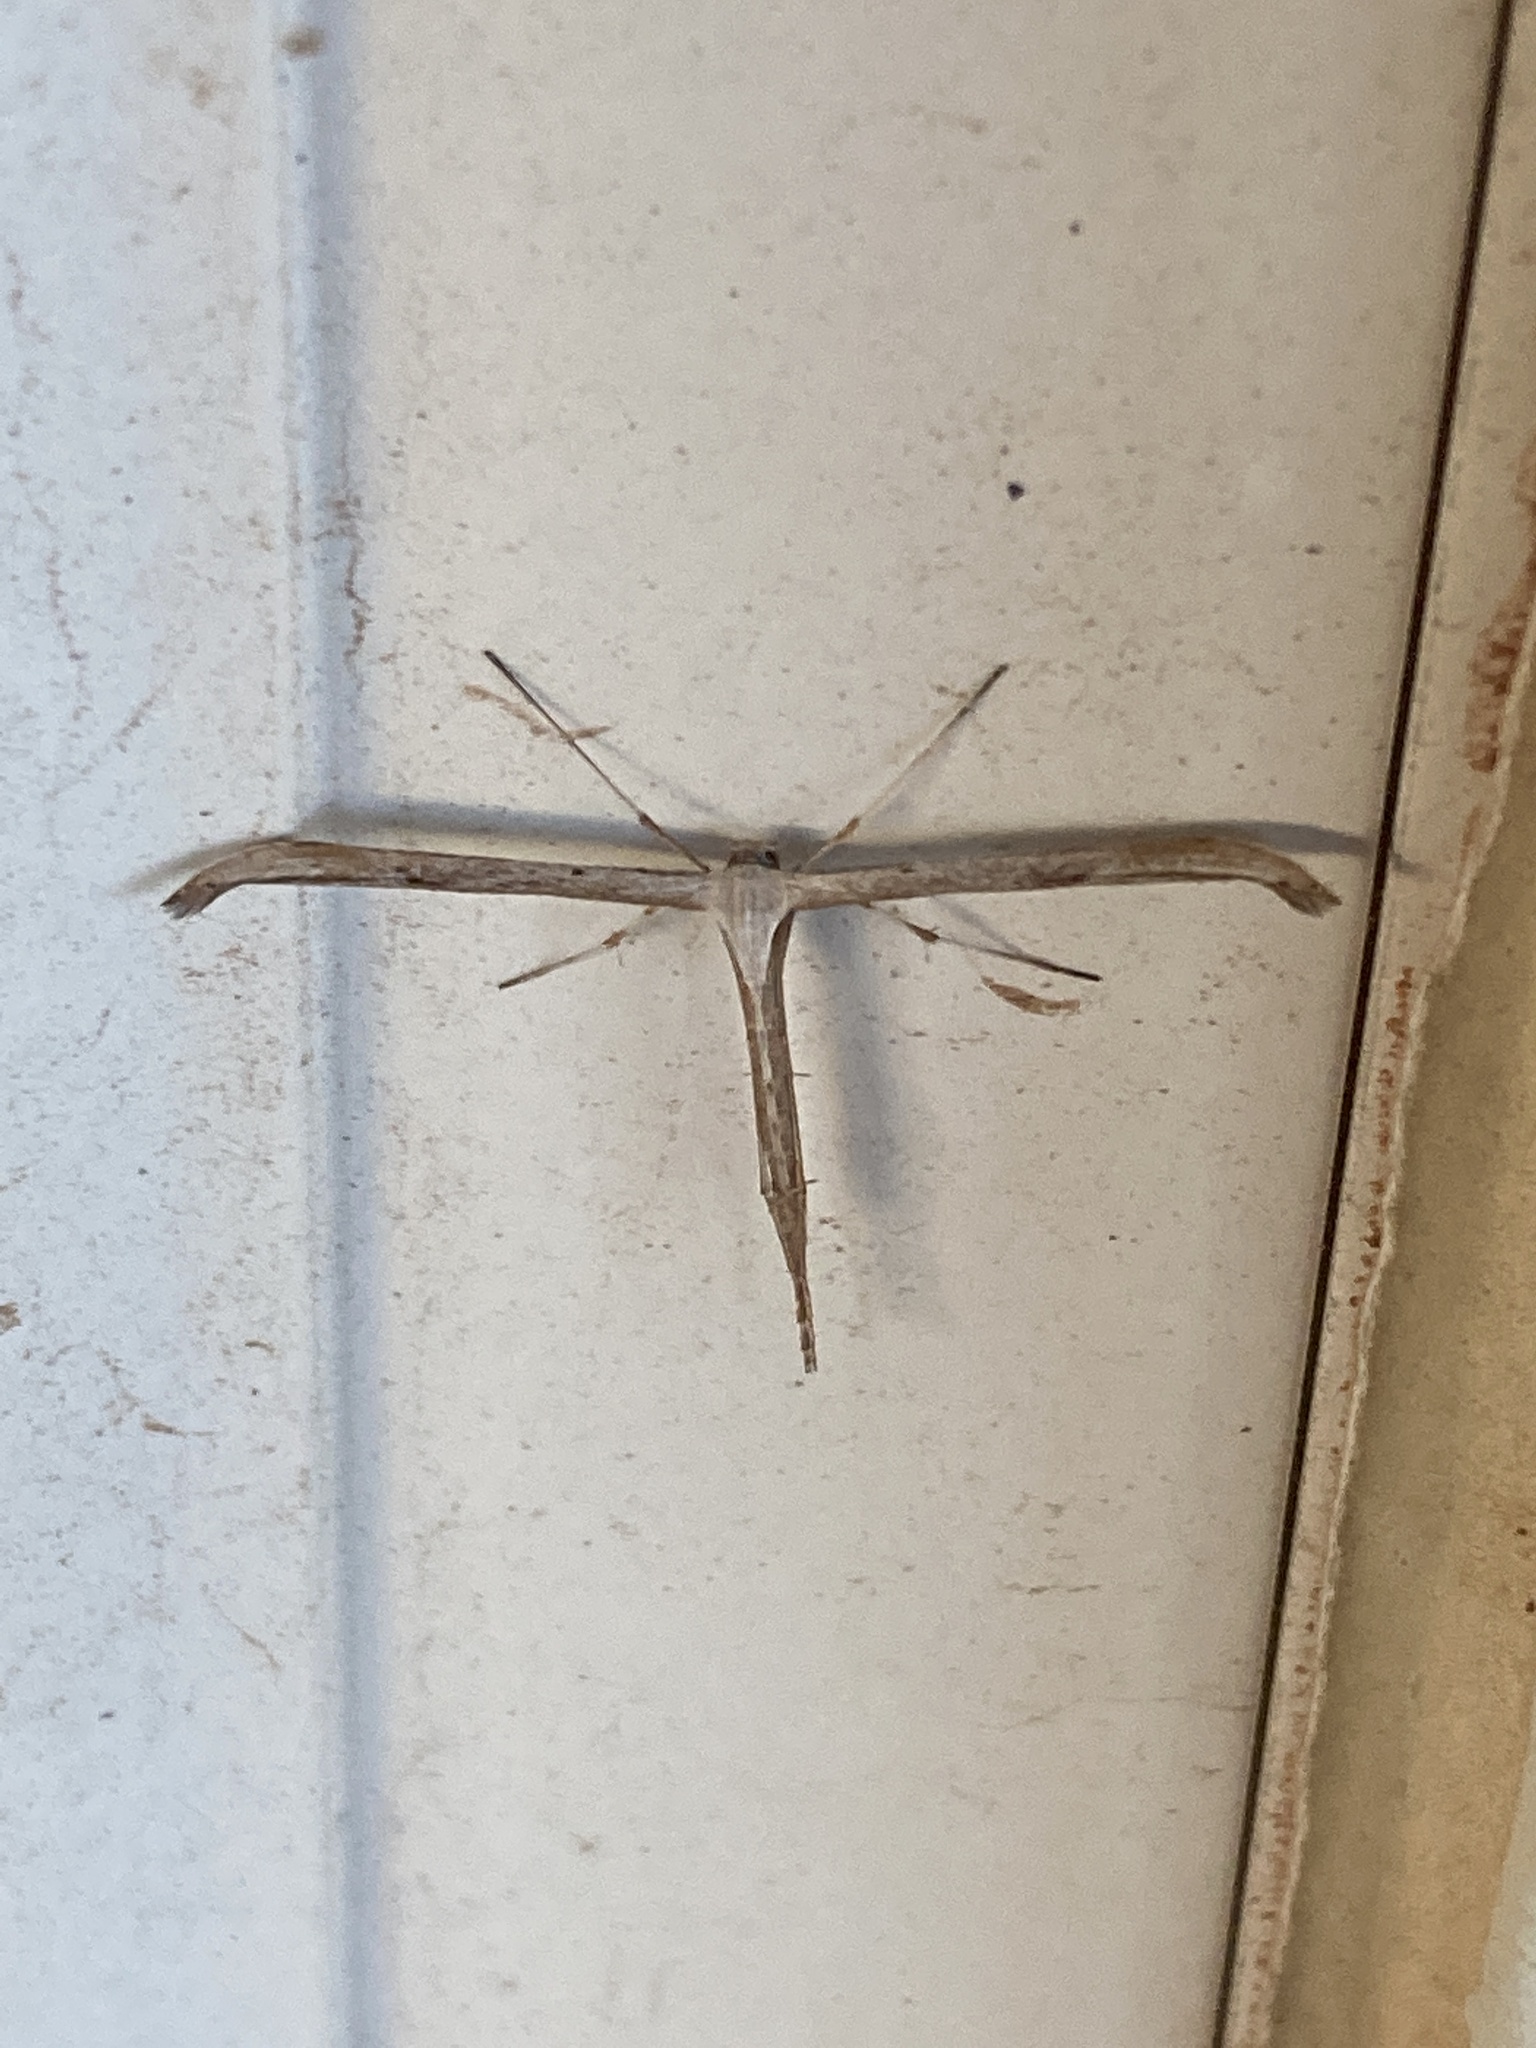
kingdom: Animalia
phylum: Arthropoda
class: Insecta
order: Lepidoptera
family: Pterophoridae
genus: Emmelina
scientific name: Emmelina monodactyla
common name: Common plume
